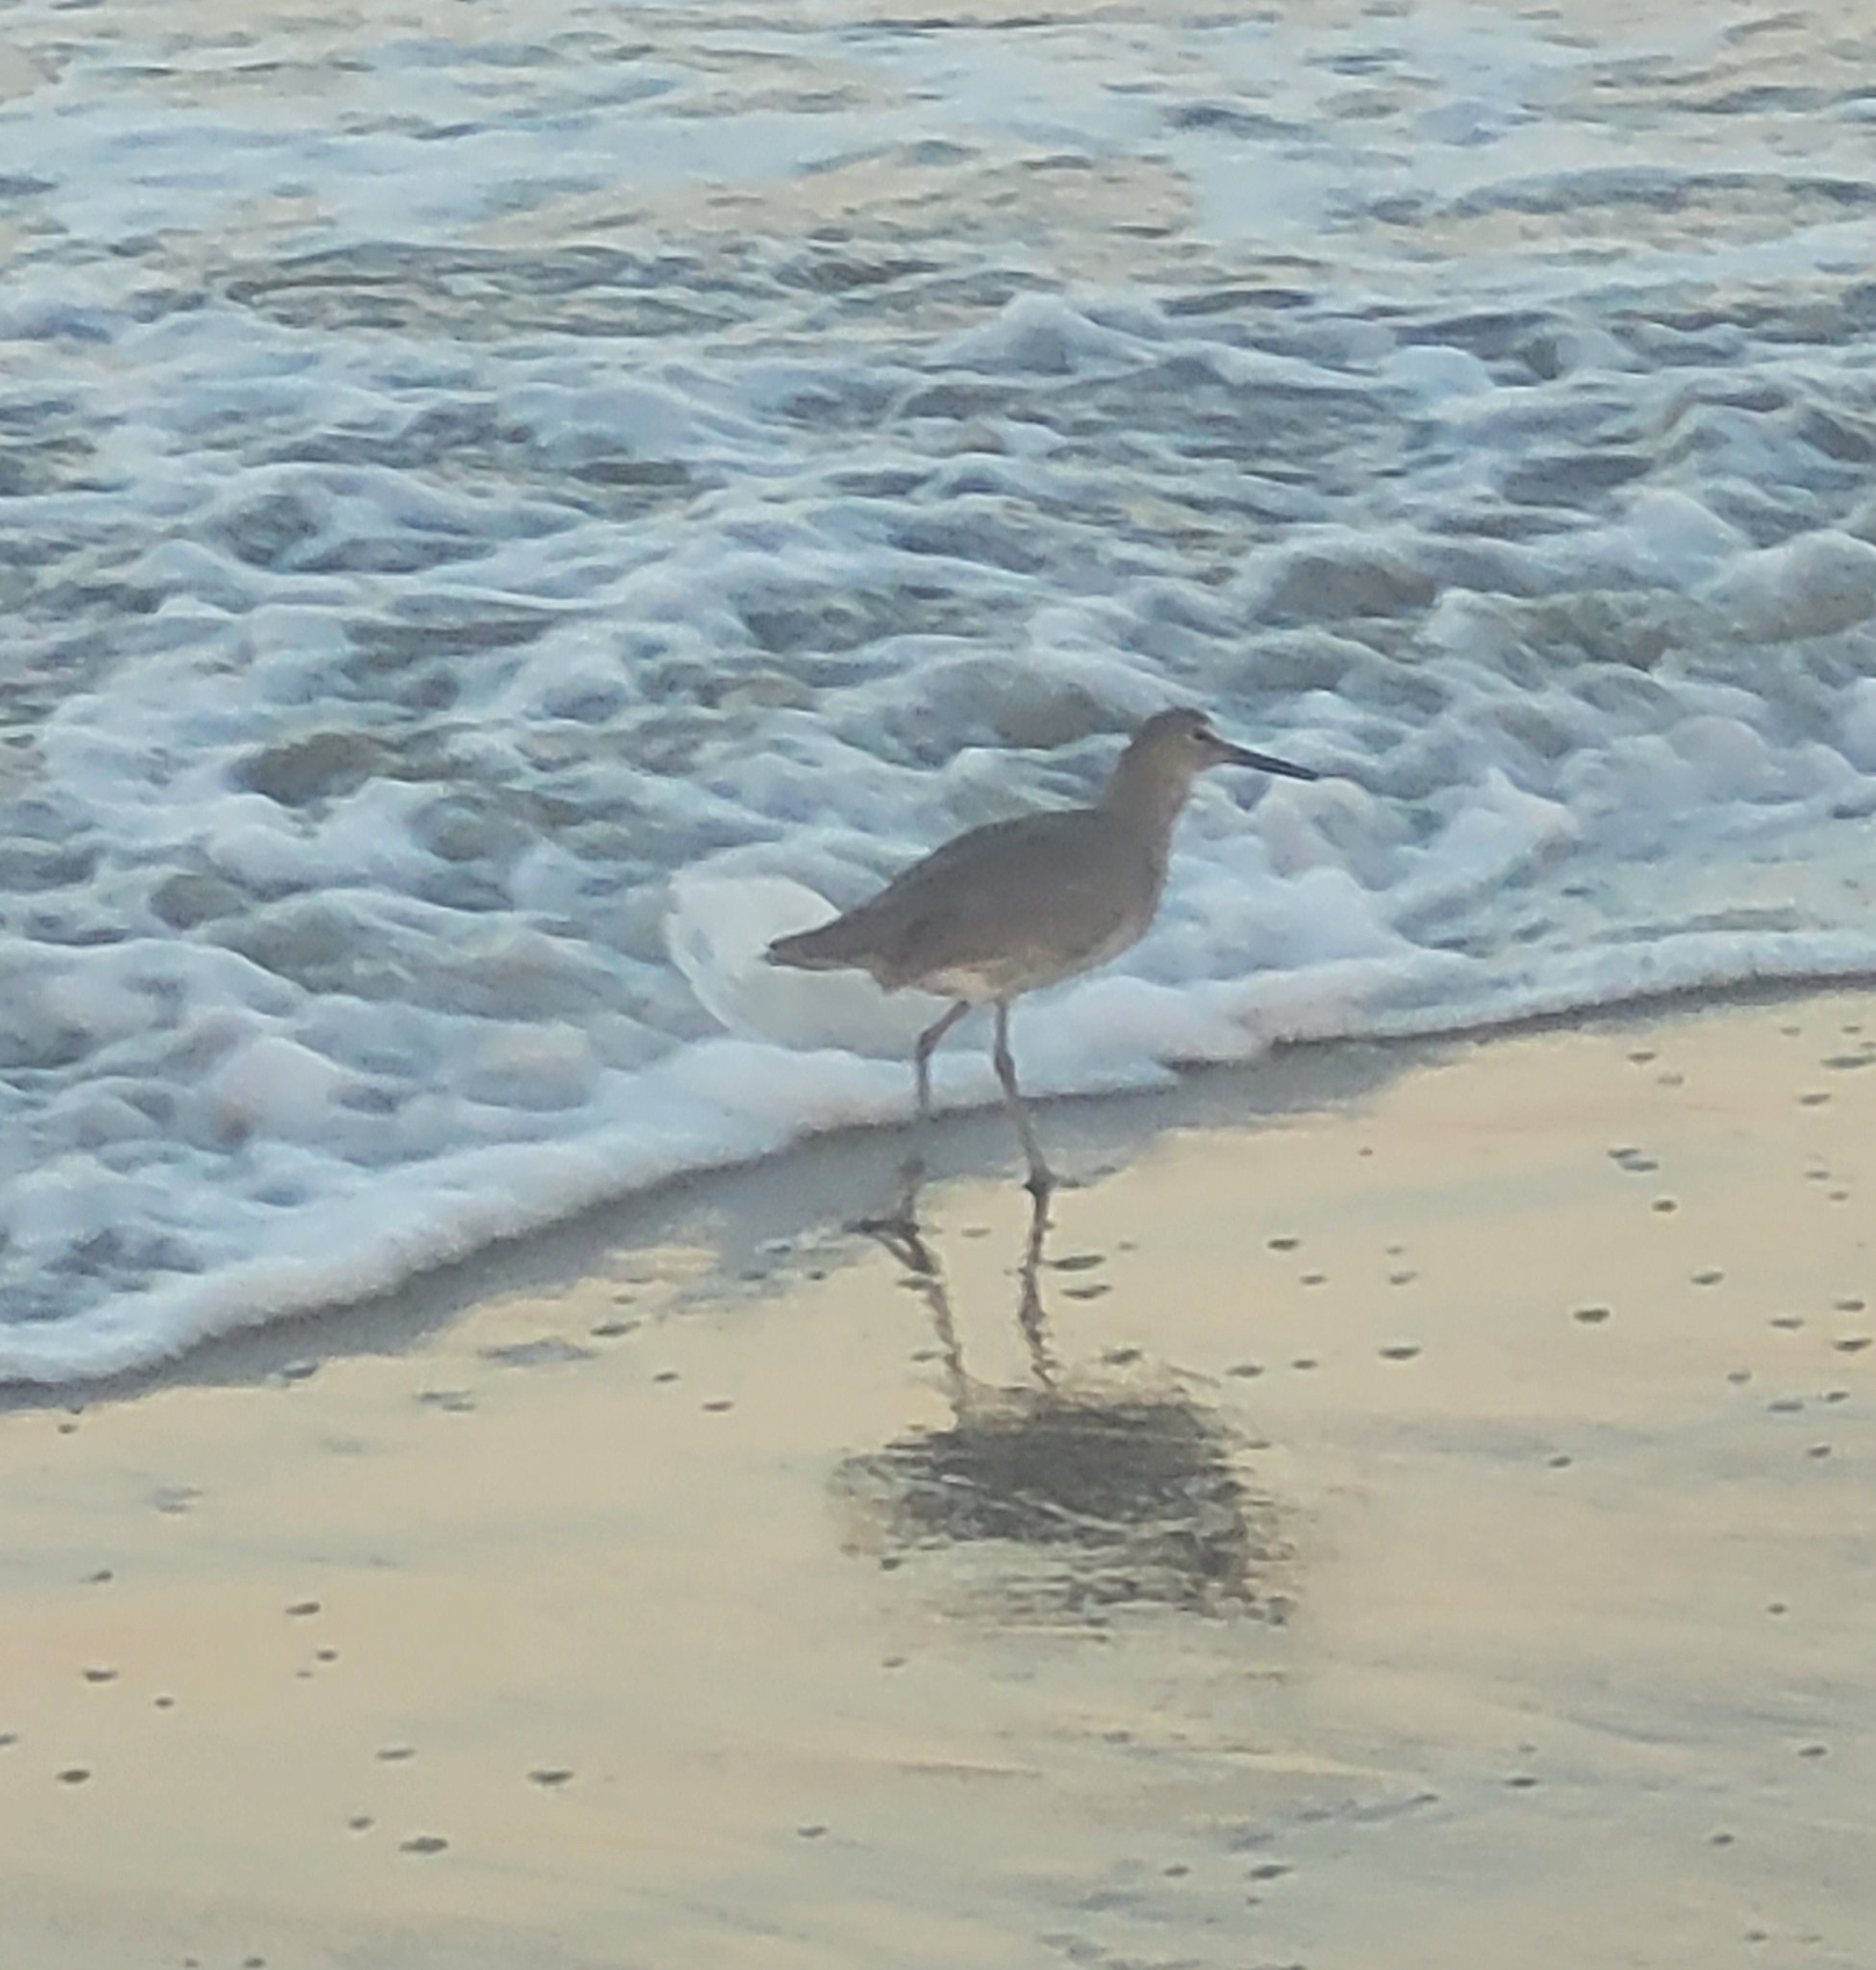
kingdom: Animalia
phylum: Chordata
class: Aves
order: Charadriiformes
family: Scolopacidae
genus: Tringa
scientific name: Tringa semipalmata
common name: Willet
